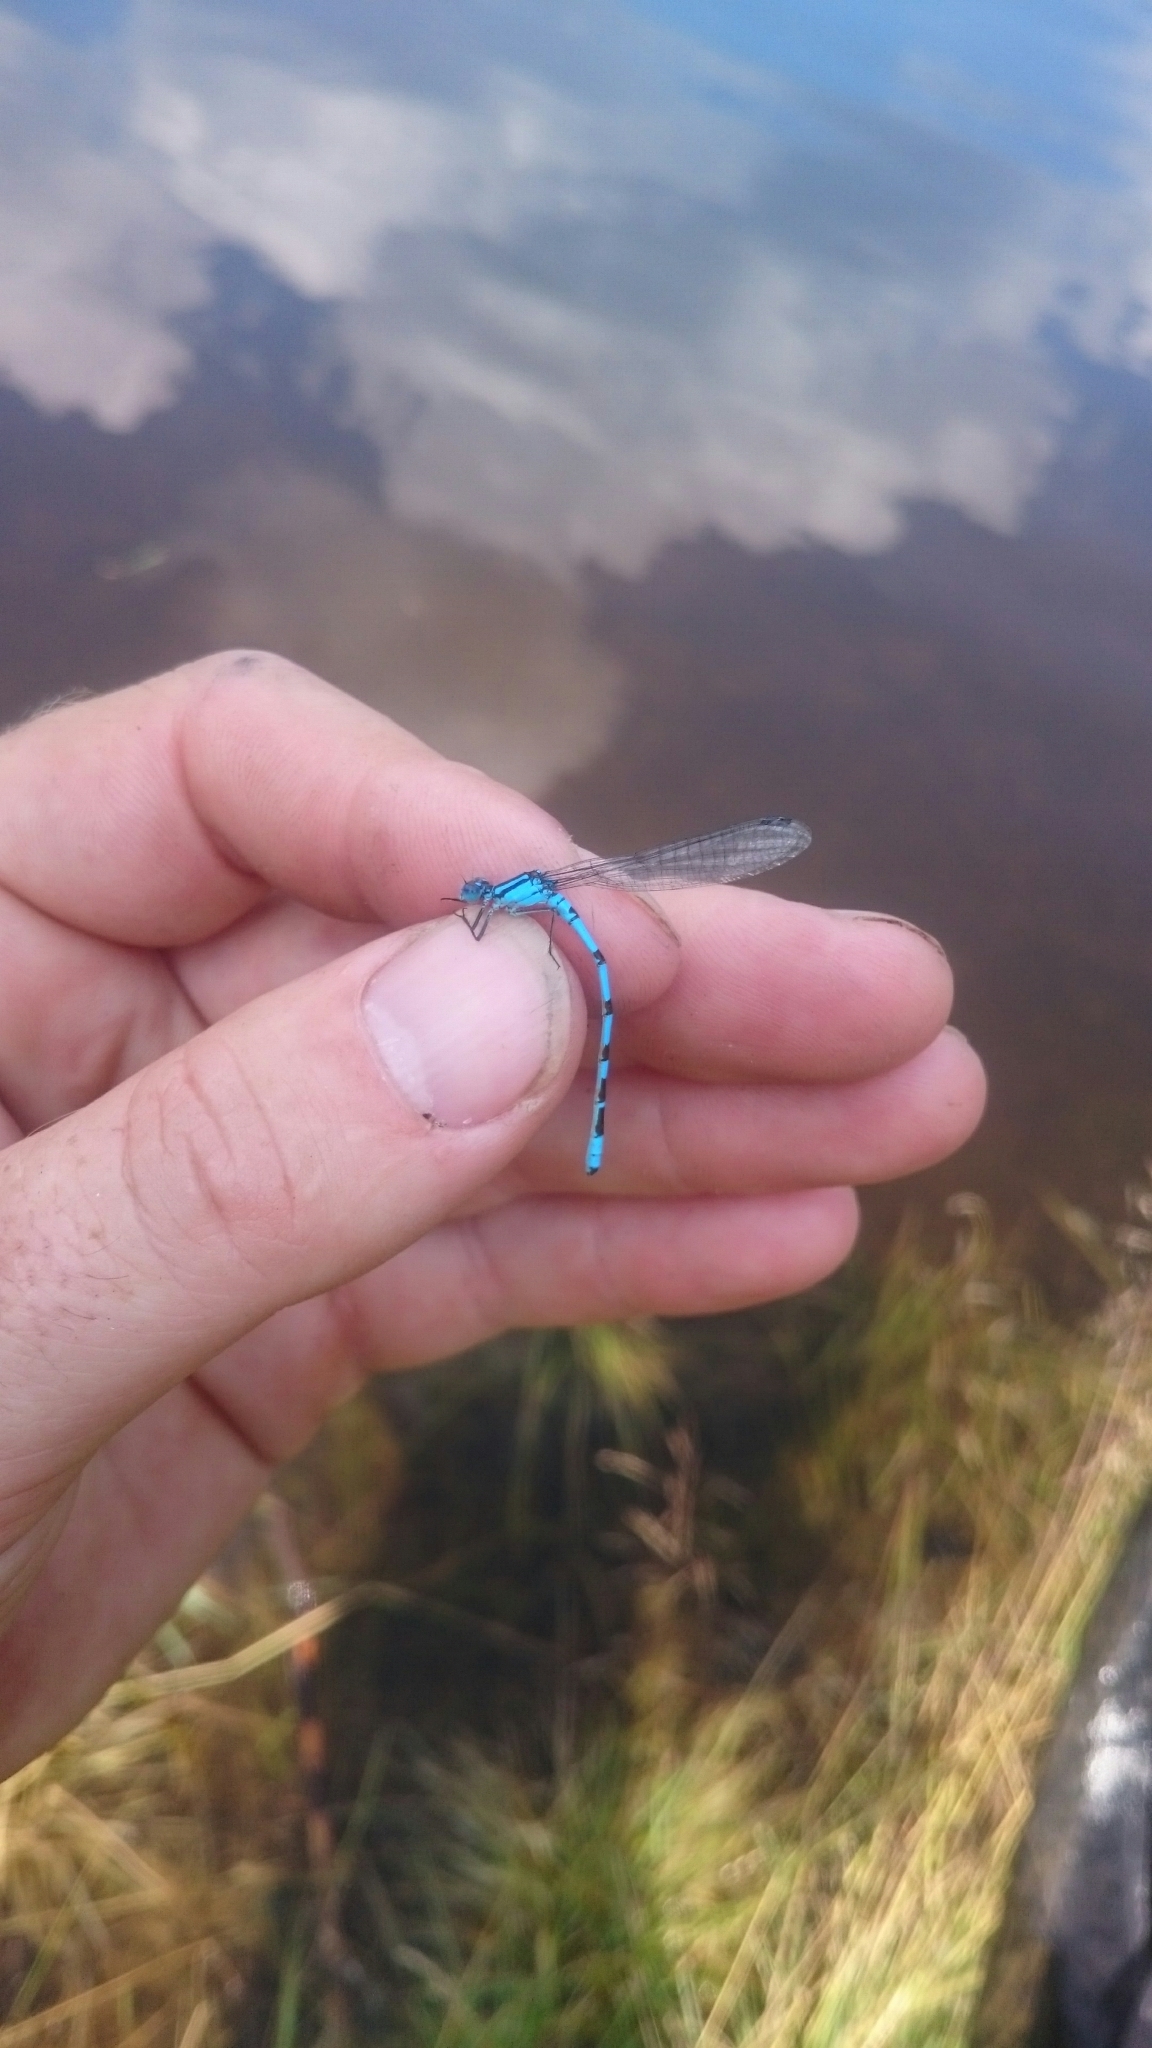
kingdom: Animalia
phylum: Arthropoda
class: Insecta
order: Odonata
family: Coenagrionidae
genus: Enallagma
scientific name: Enallagma cyathigerum
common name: Common blue damselfly
